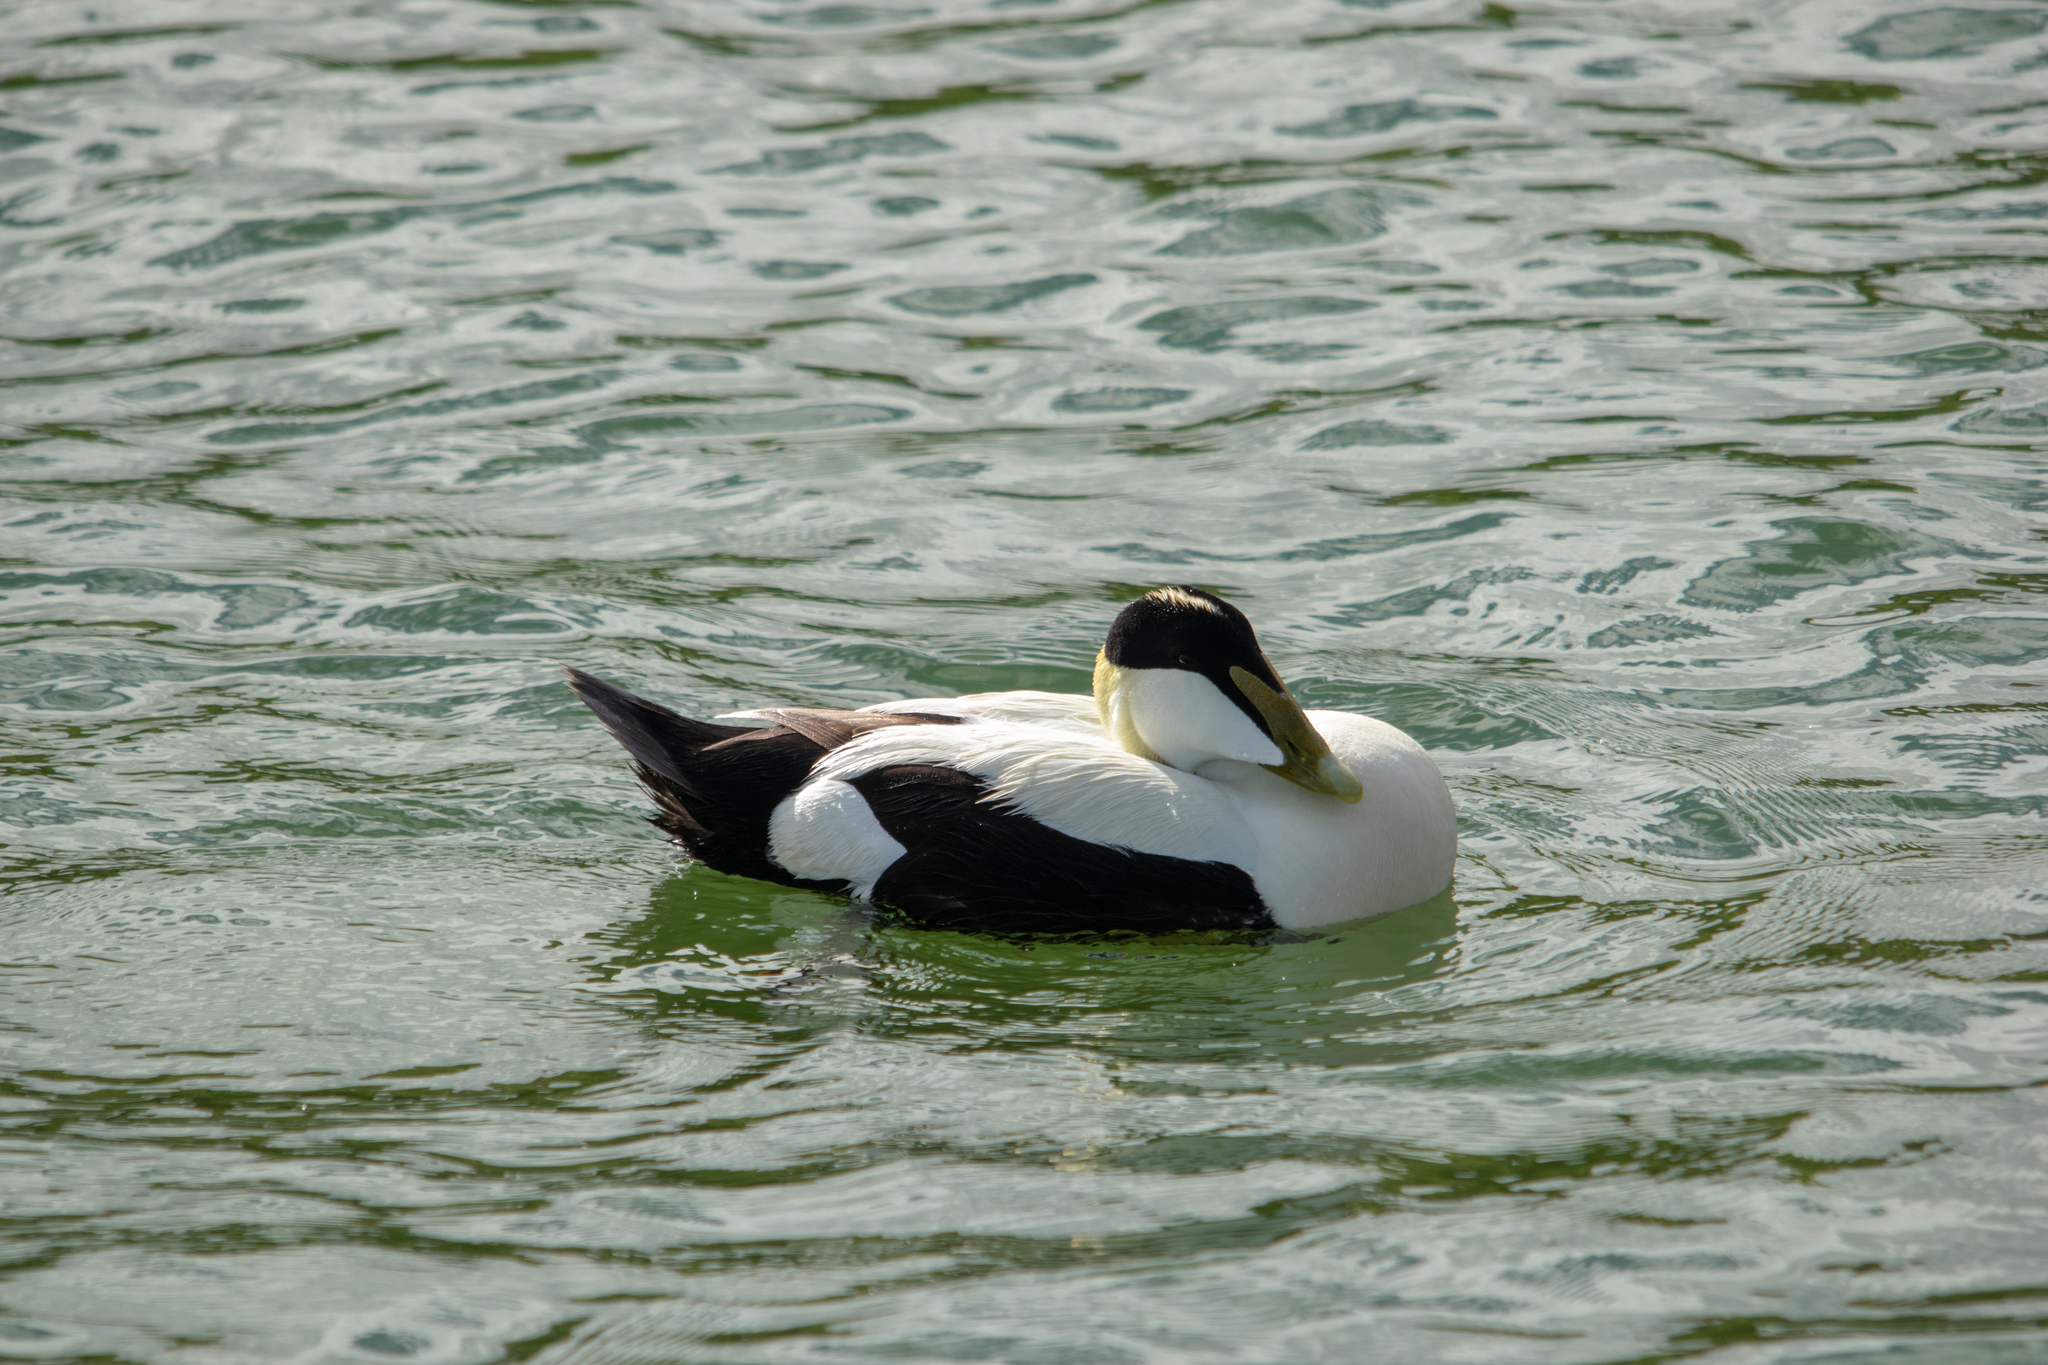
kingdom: Animalia
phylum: Chordata
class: Aves
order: Anseriformes
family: Anatidae
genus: Somateria
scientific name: Somateria mollissima
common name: Common eider
